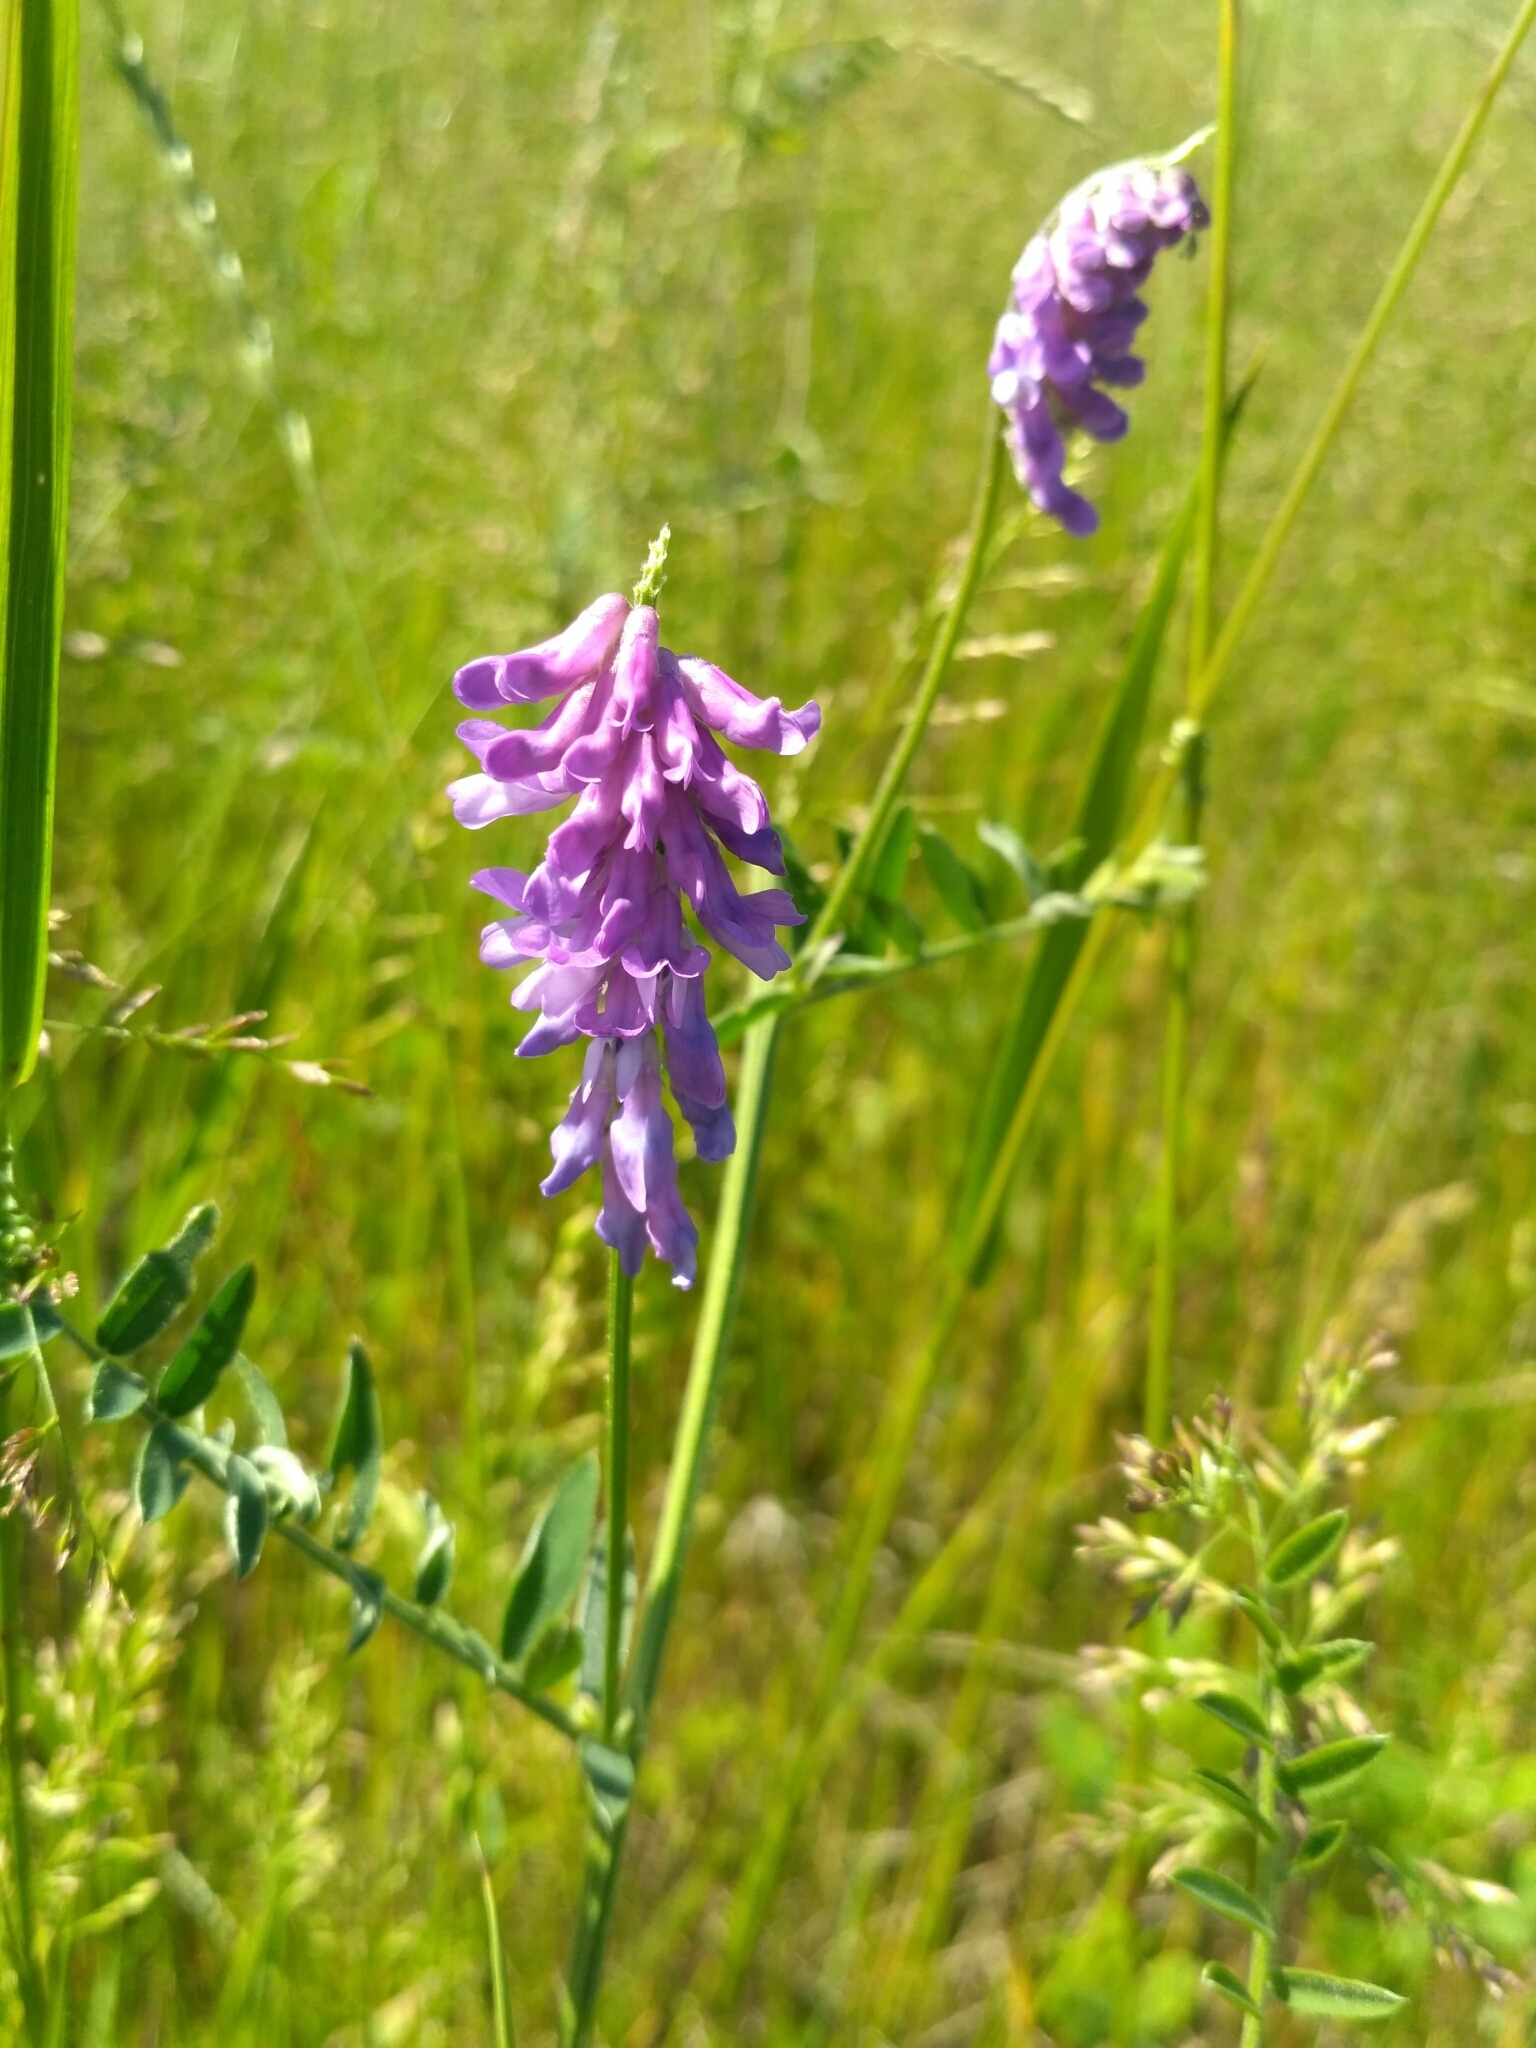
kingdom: Plantae
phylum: Tracheophyta
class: Magnoliopsida
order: Fabales
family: Fabaceae
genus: Vicia
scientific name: Vicia cracca
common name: Bird vetch
